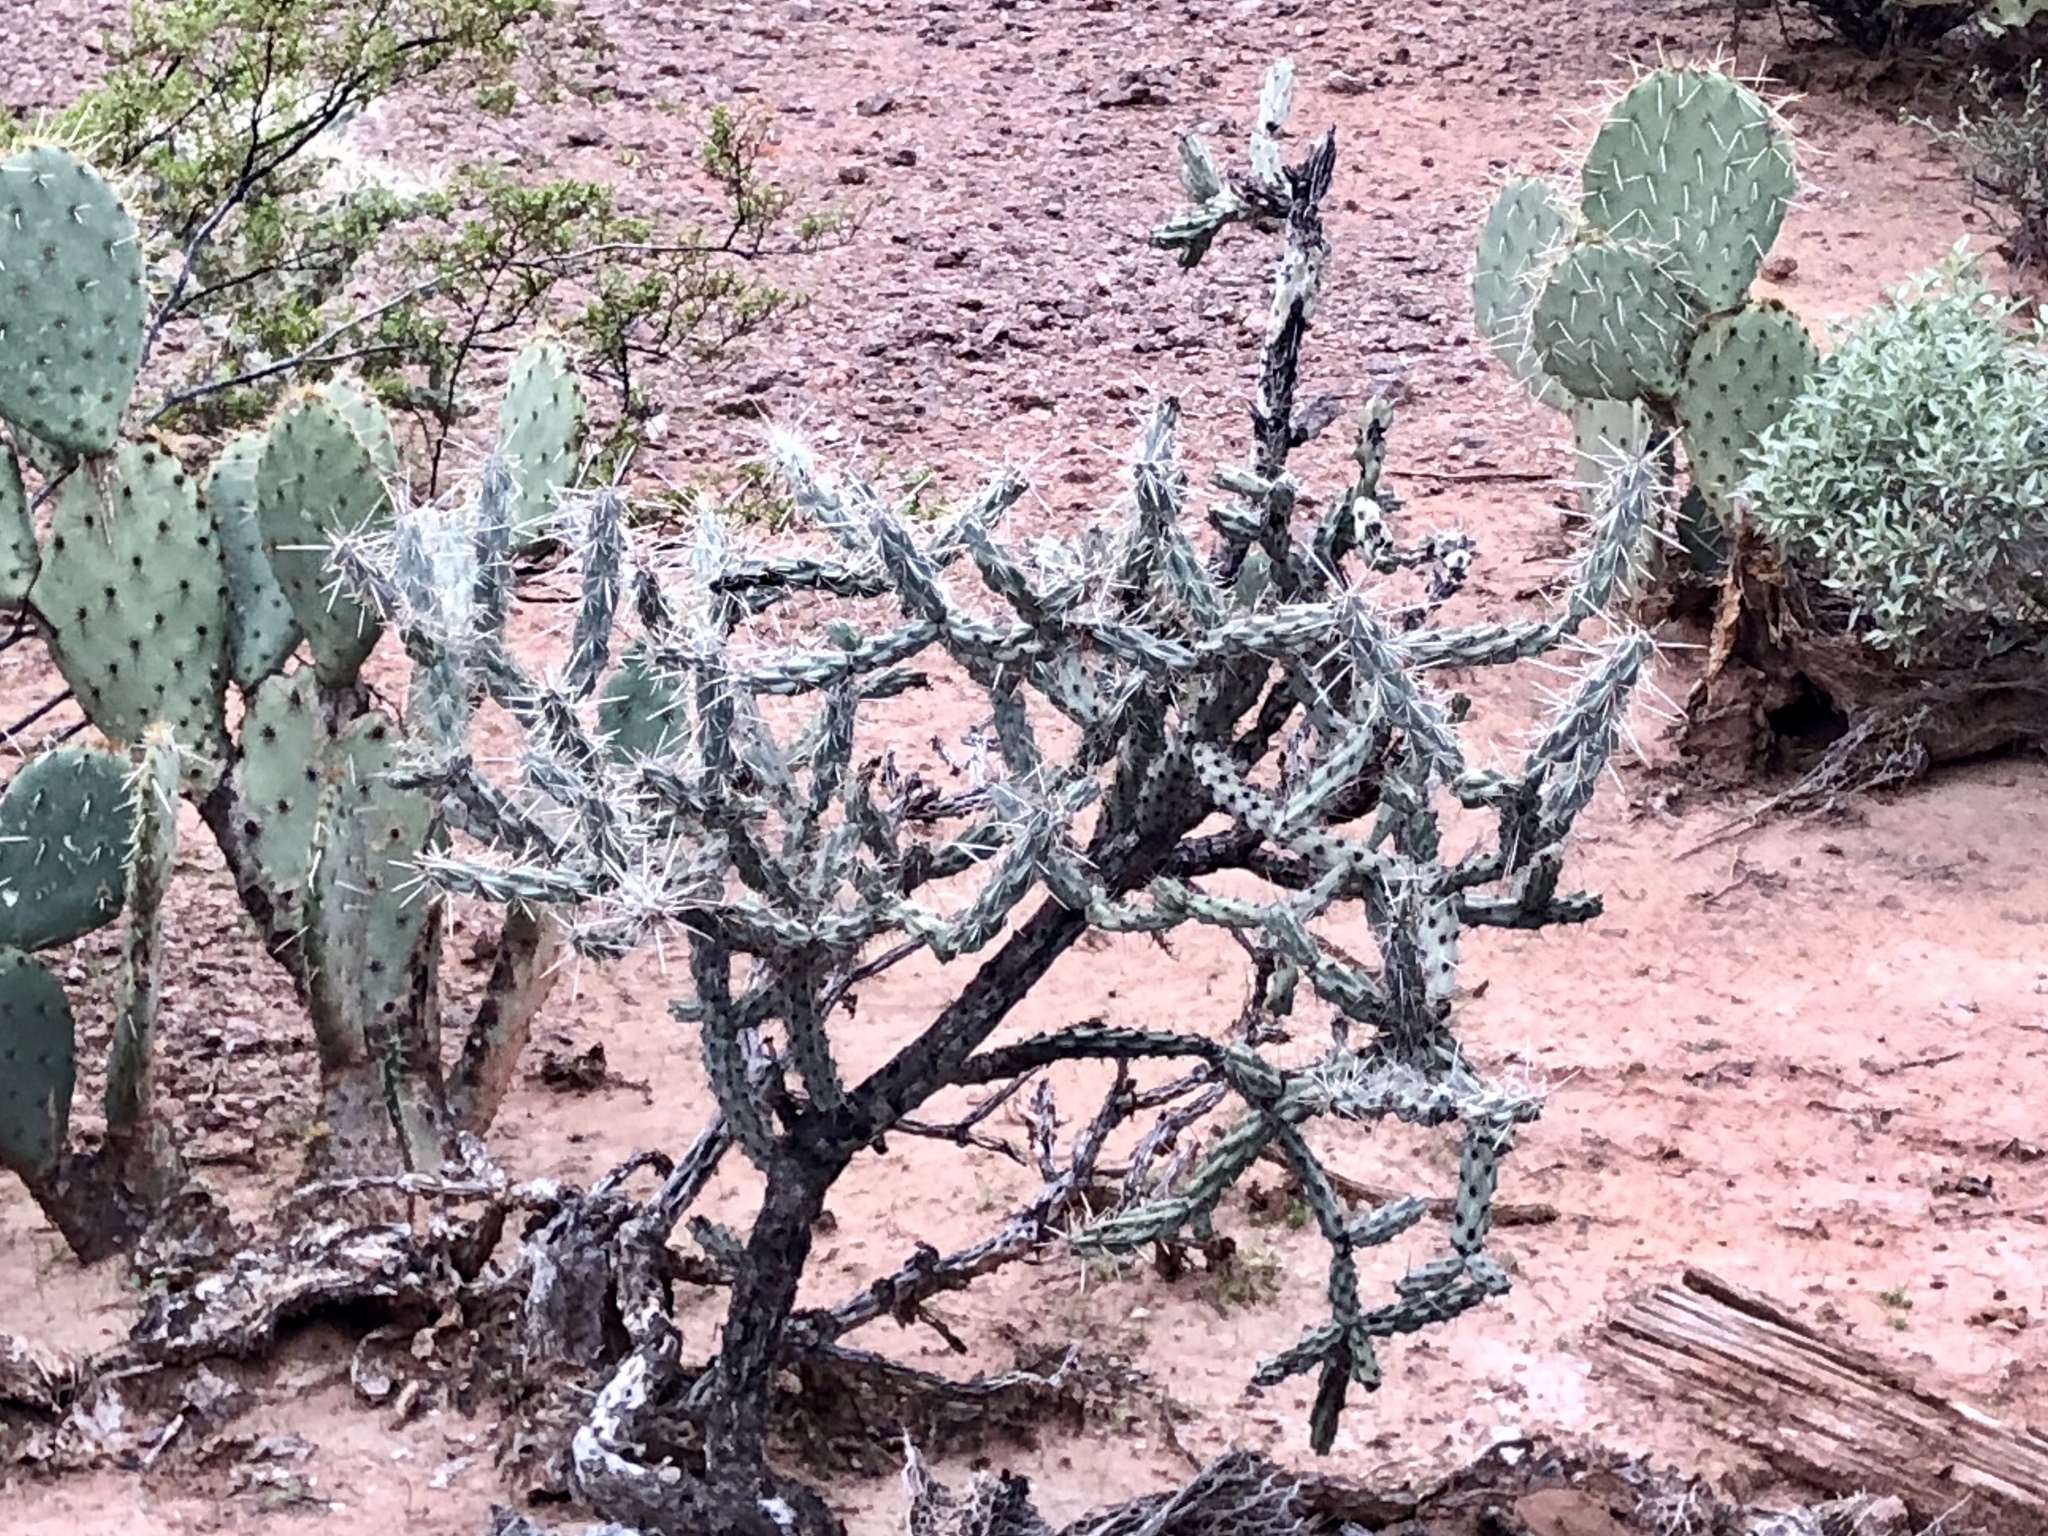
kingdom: Plantae
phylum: Tracheophyta
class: Magnoliopsida
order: Caryophyllales
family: Cactaceae
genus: Cylindropuntia
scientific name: Cylindropuntia acanthocarpa
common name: Buckhorn cholla
